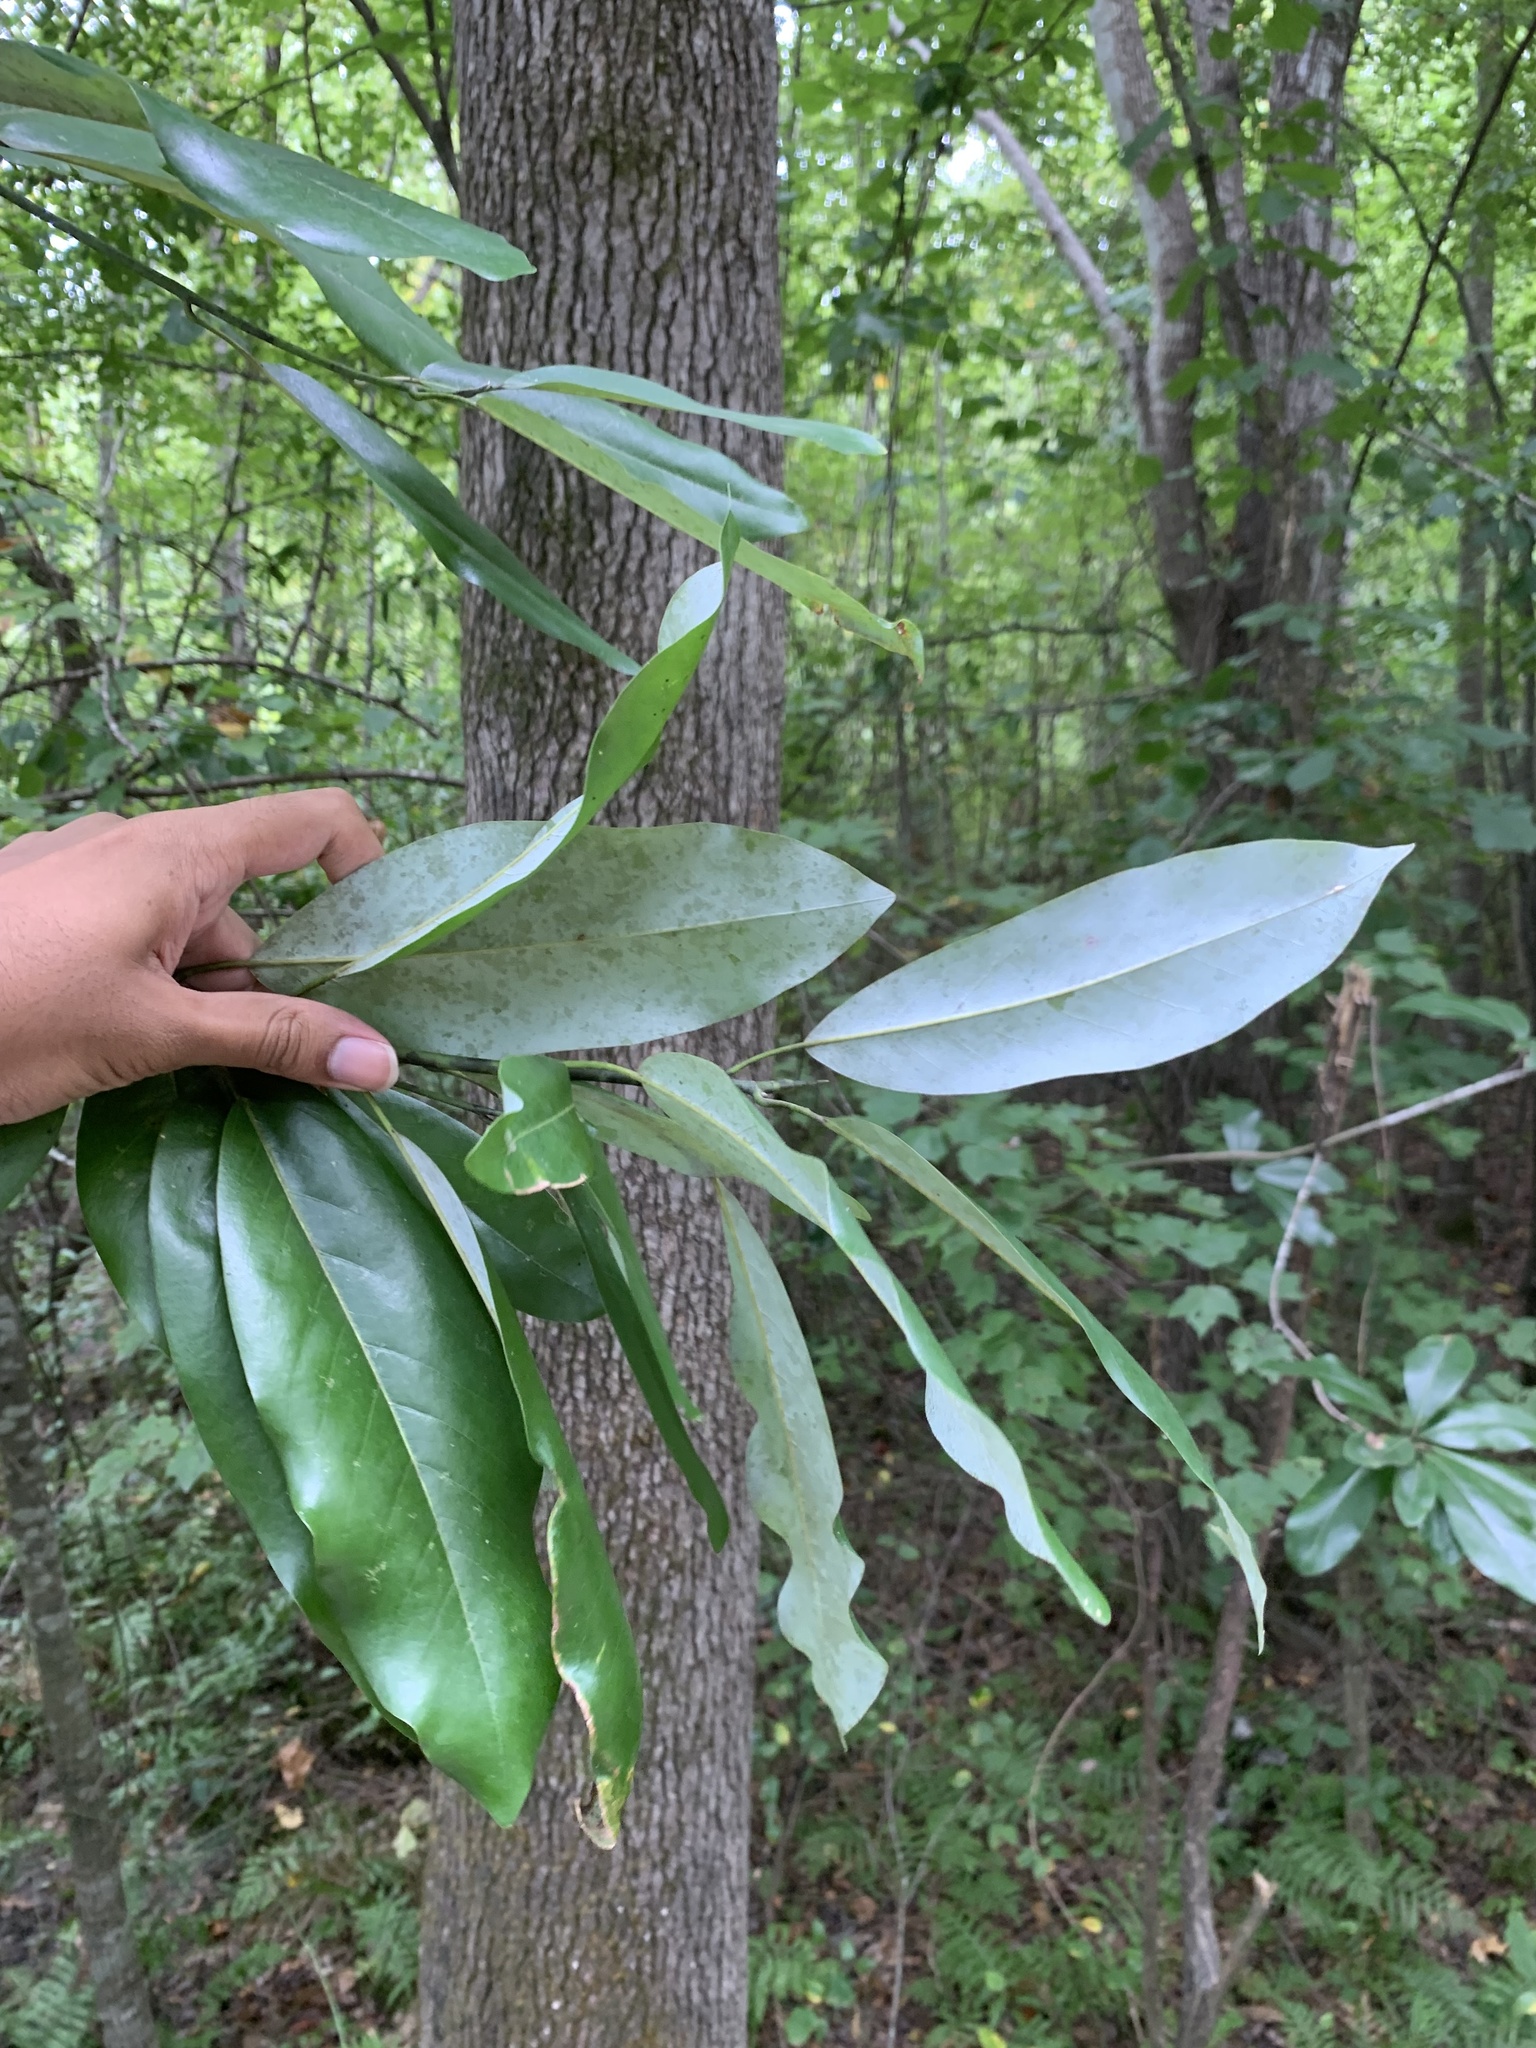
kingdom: Plantae
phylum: Tracheophyta
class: Magnoliopsida
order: Magnoliales
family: Magnoliaceae
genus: Magnolia
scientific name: Magnolia virginiana
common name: Swamp bay
